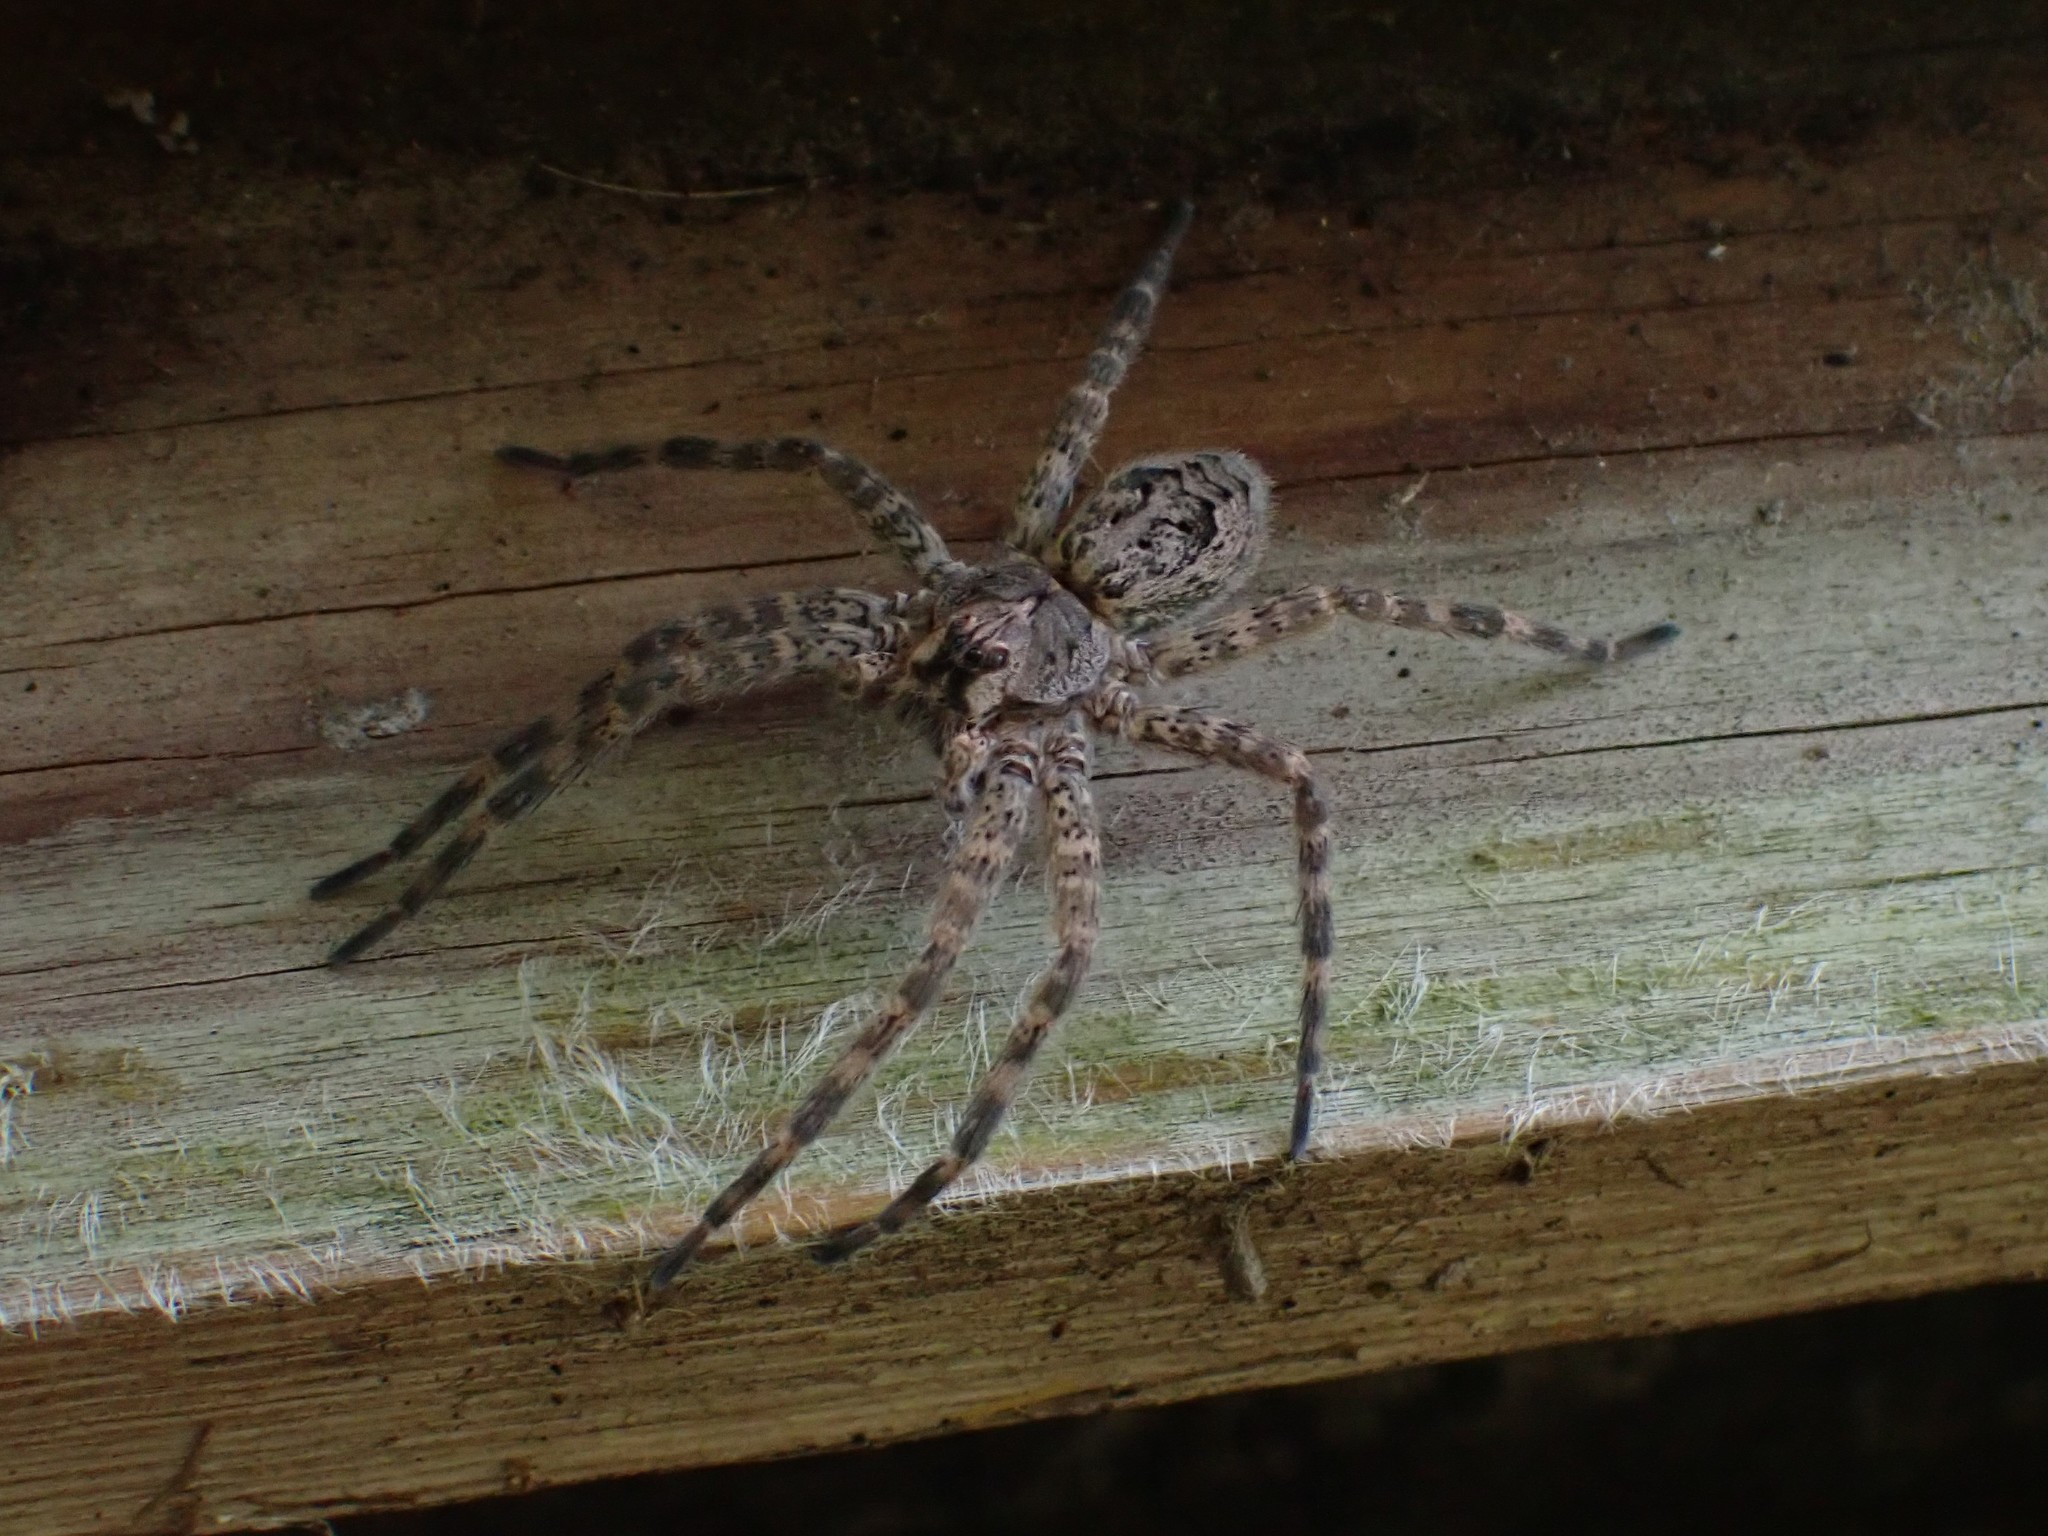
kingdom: Animalia
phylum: Arthropoda
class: Arachnida
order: Araneae
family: Pisauridae
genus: Dolomedes
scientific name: Dolomedes tenebrosus
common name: Dark fishing spider
